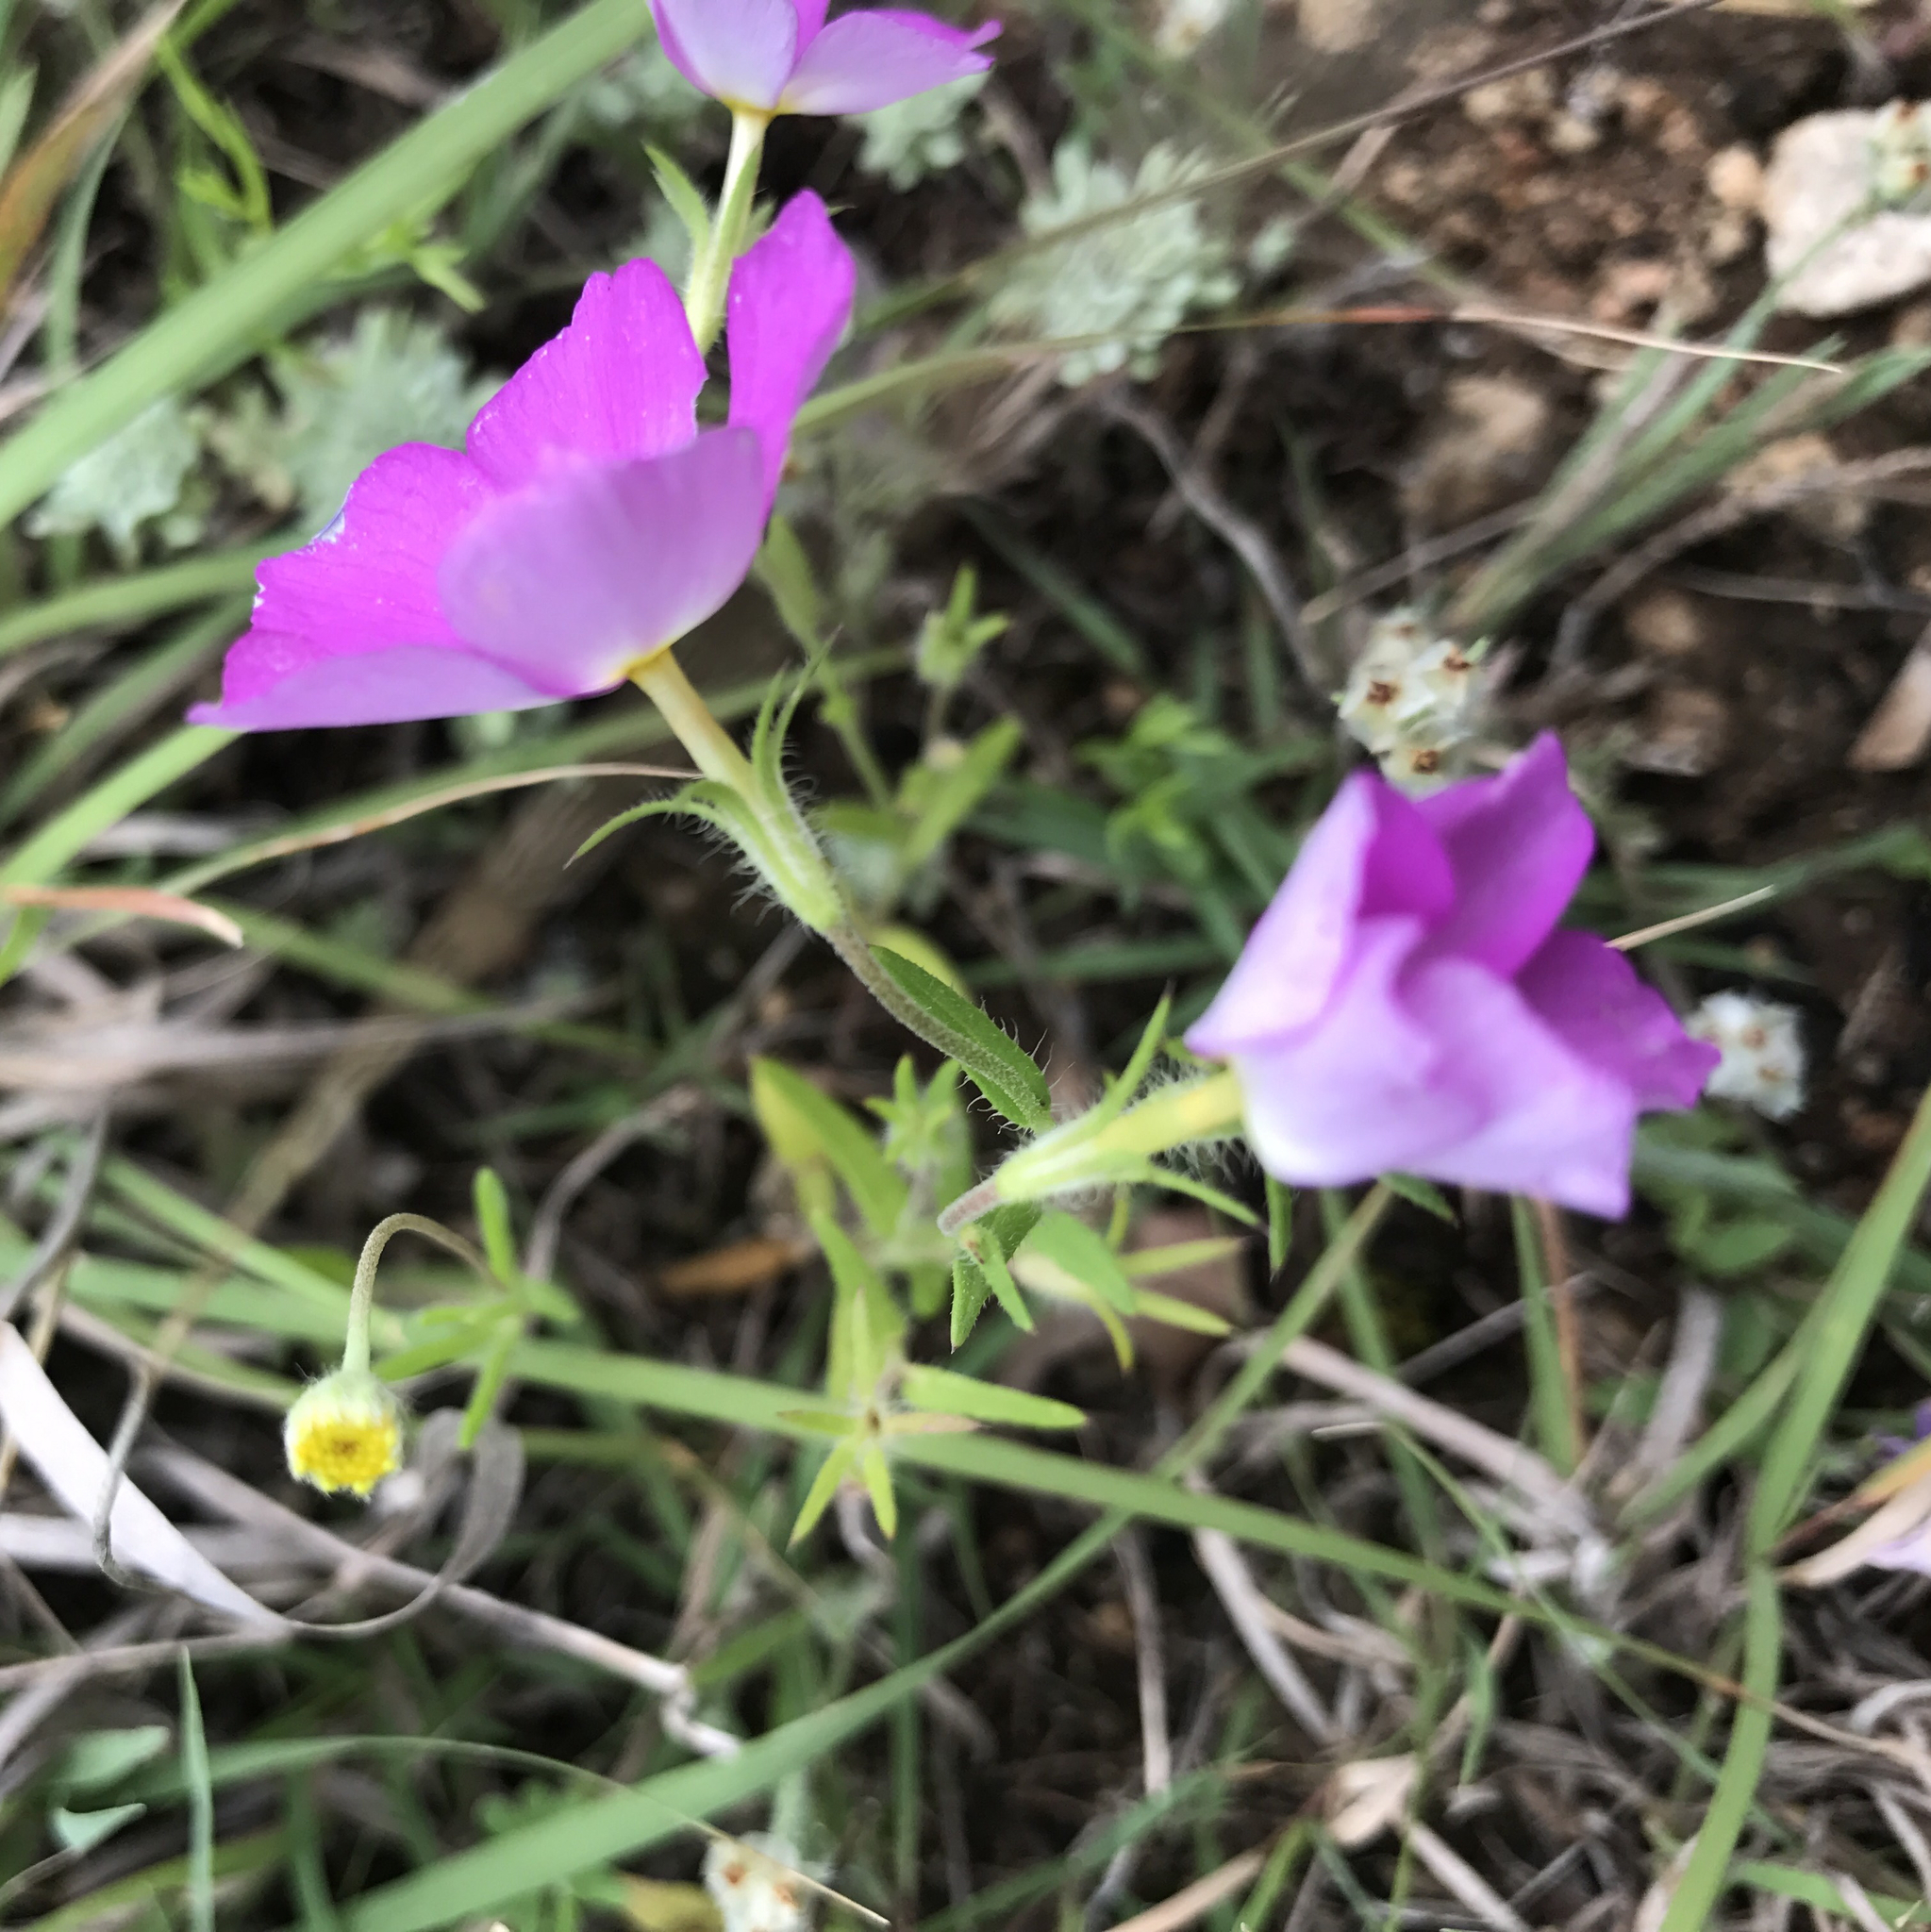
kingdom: Plantae
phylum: Tracheophyta
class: Magnoliopsida
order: Ericales
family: Polemoniaceae
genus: Phlox
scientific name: Phlox roemeriana
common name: Roemer's phlox
